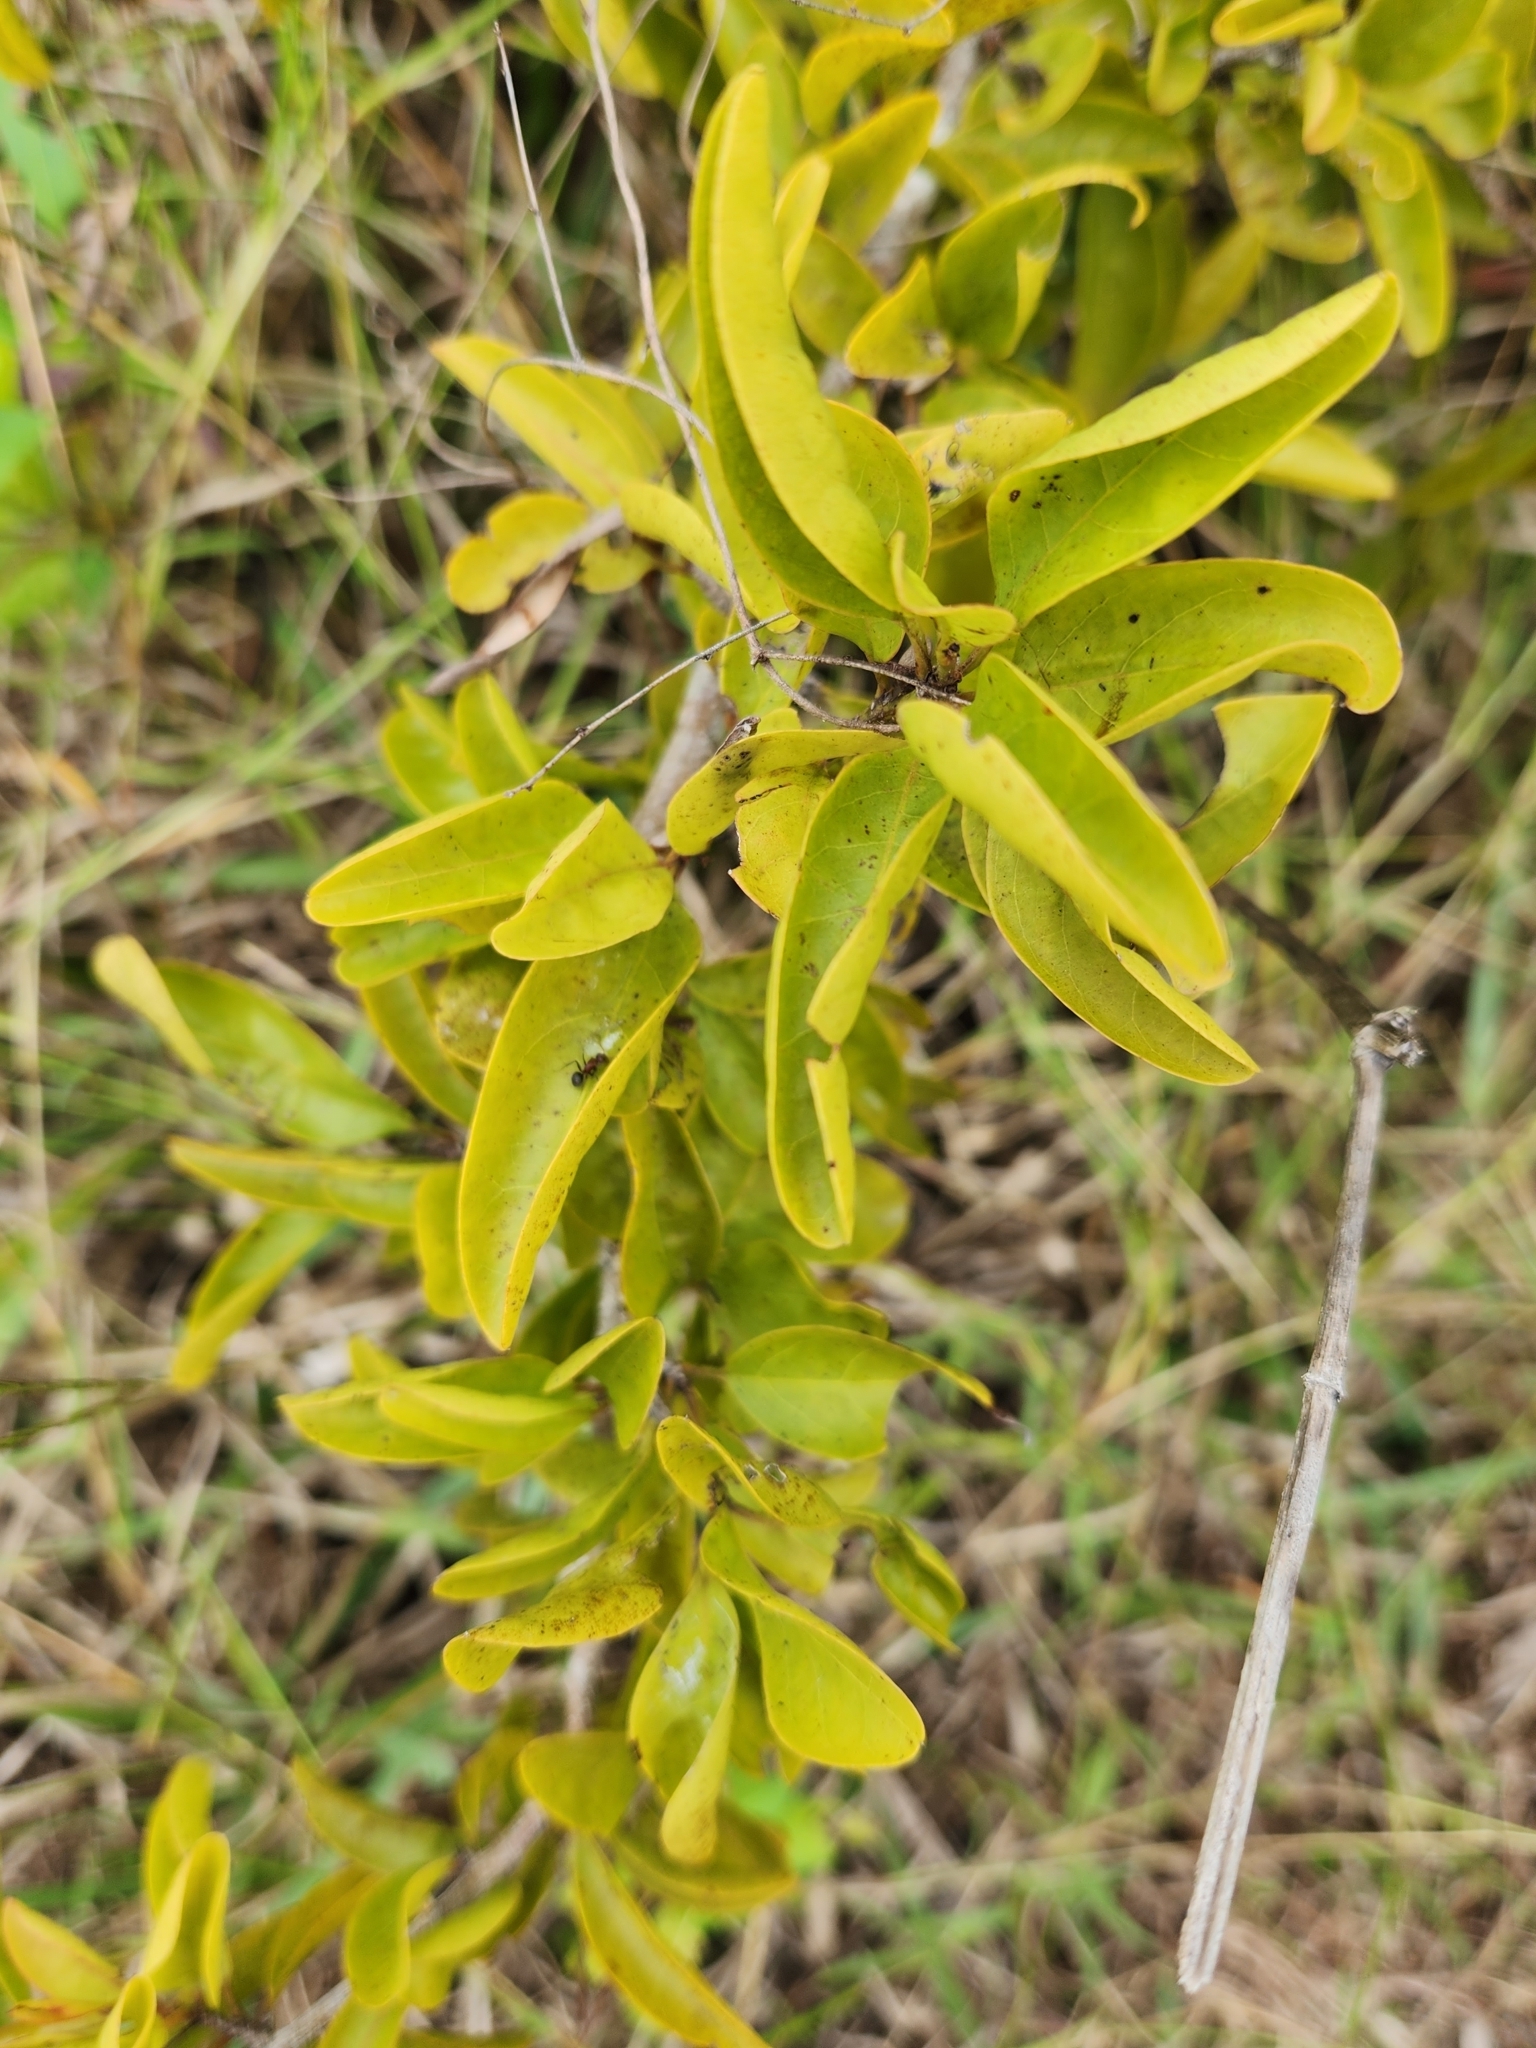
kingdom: Plantae
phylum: Tracheophyta
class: Magnoliopsida
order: Santalales
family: Ximeniaceae
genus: Ximenia
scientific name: Ximenia americana
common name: Tallowwood
